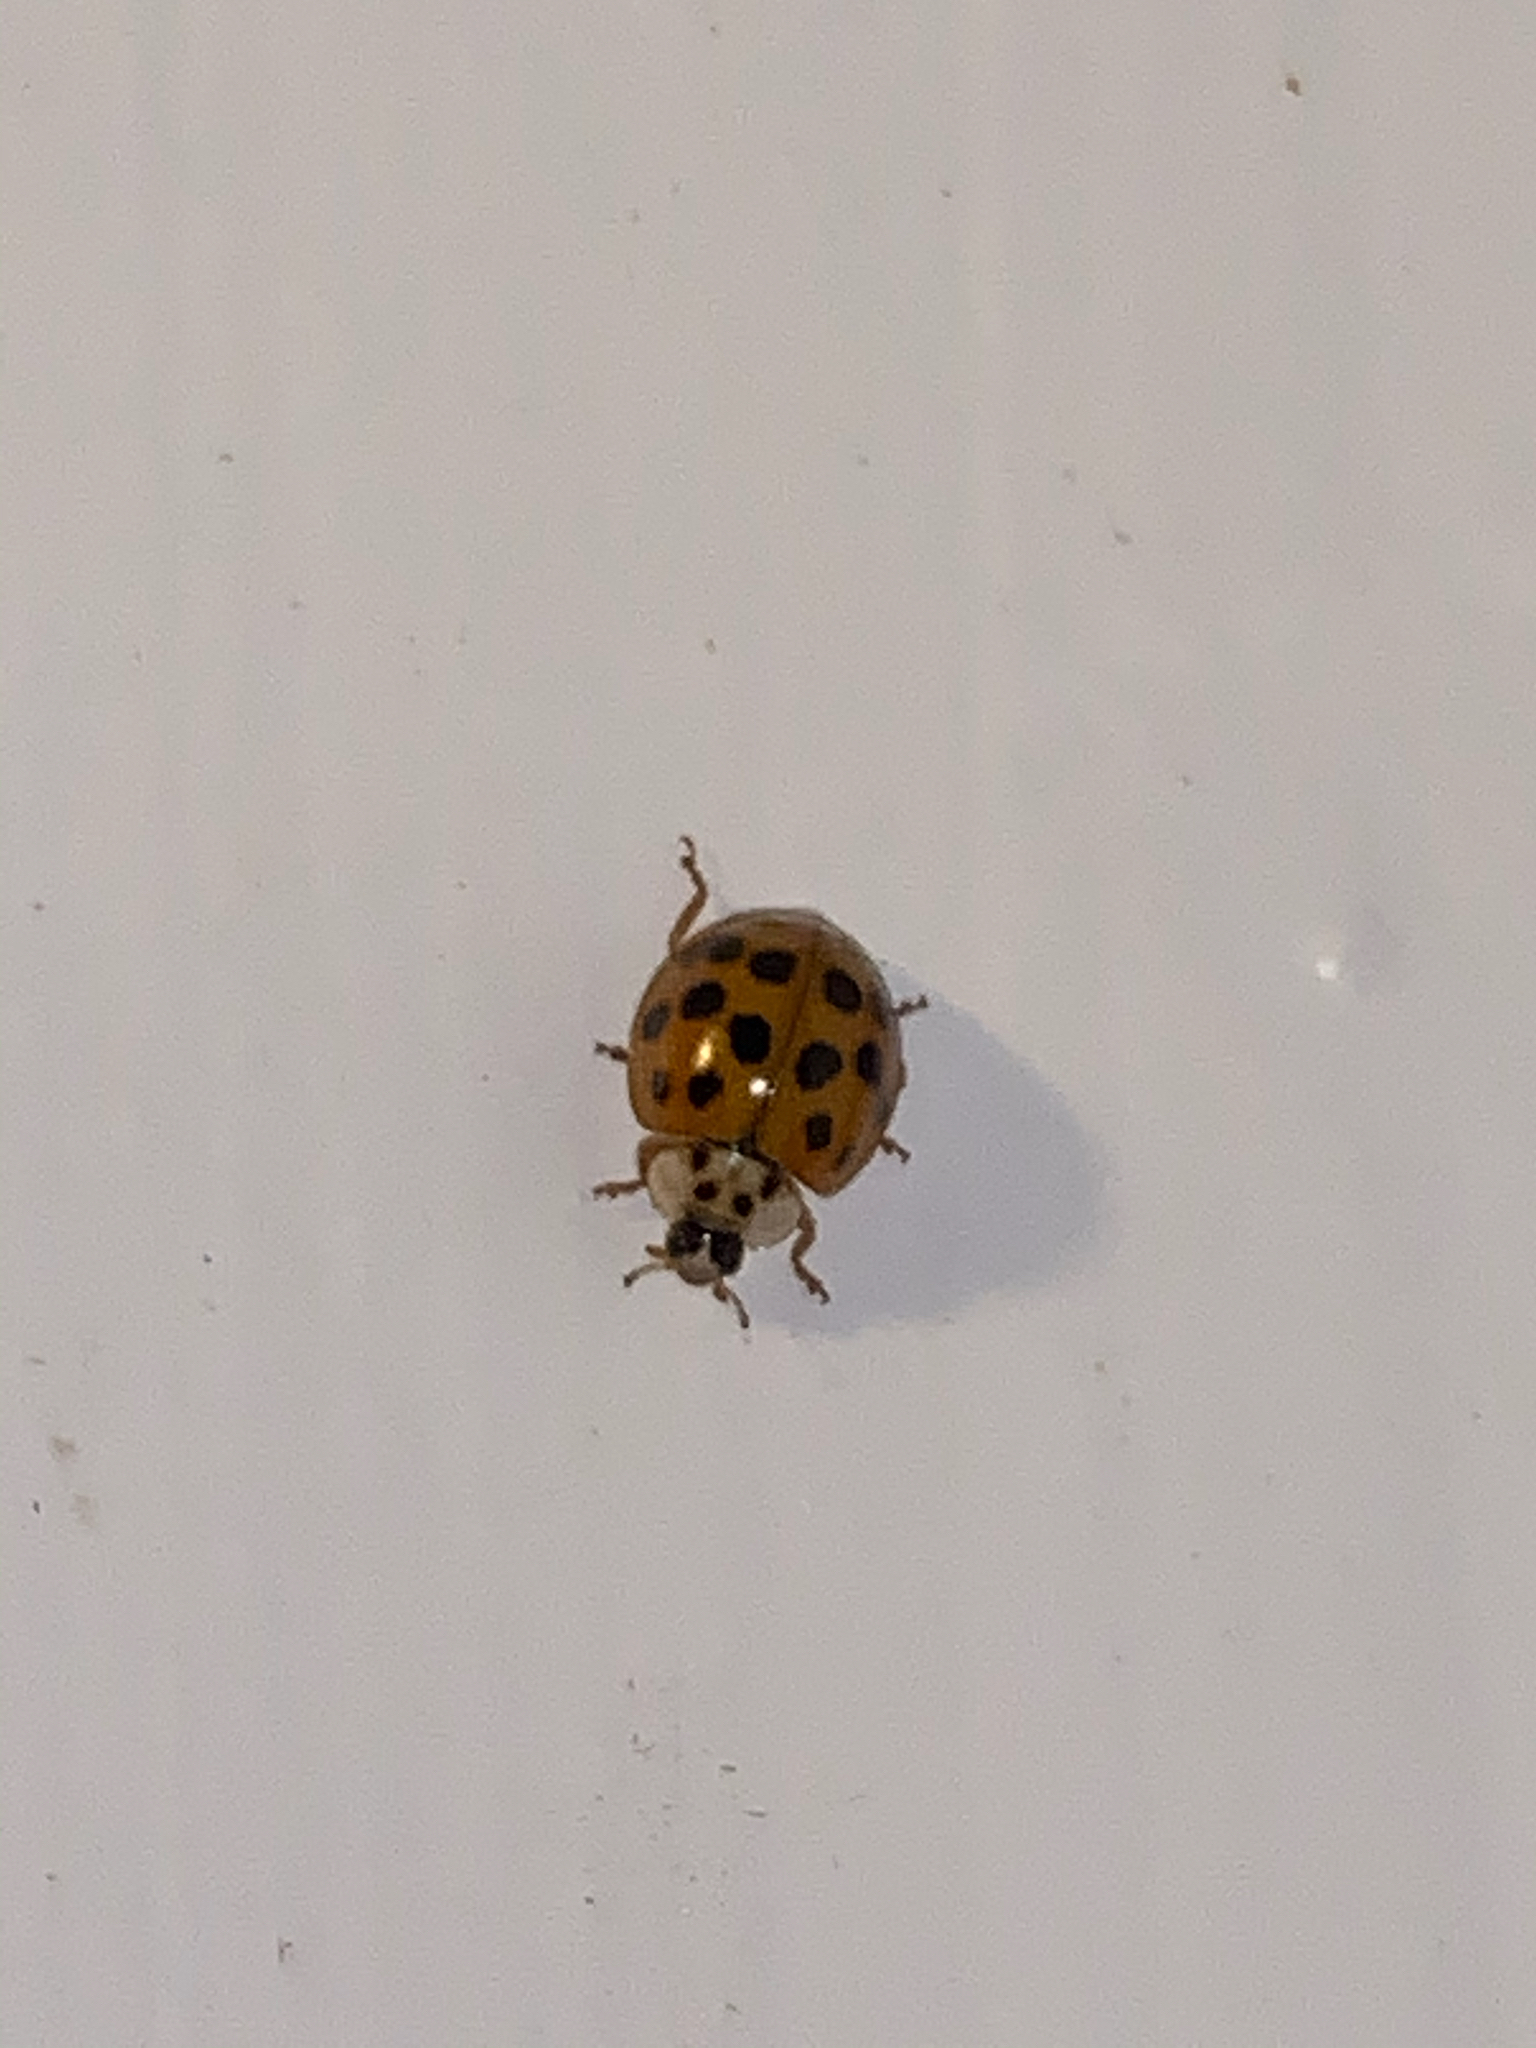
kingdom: Animalia
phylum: Arthropoda
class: Insecta
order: Coleoptera
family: Coccinellidae
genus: Harmonia
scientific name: Harmonia axyridis
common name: Harlequin ladybird
